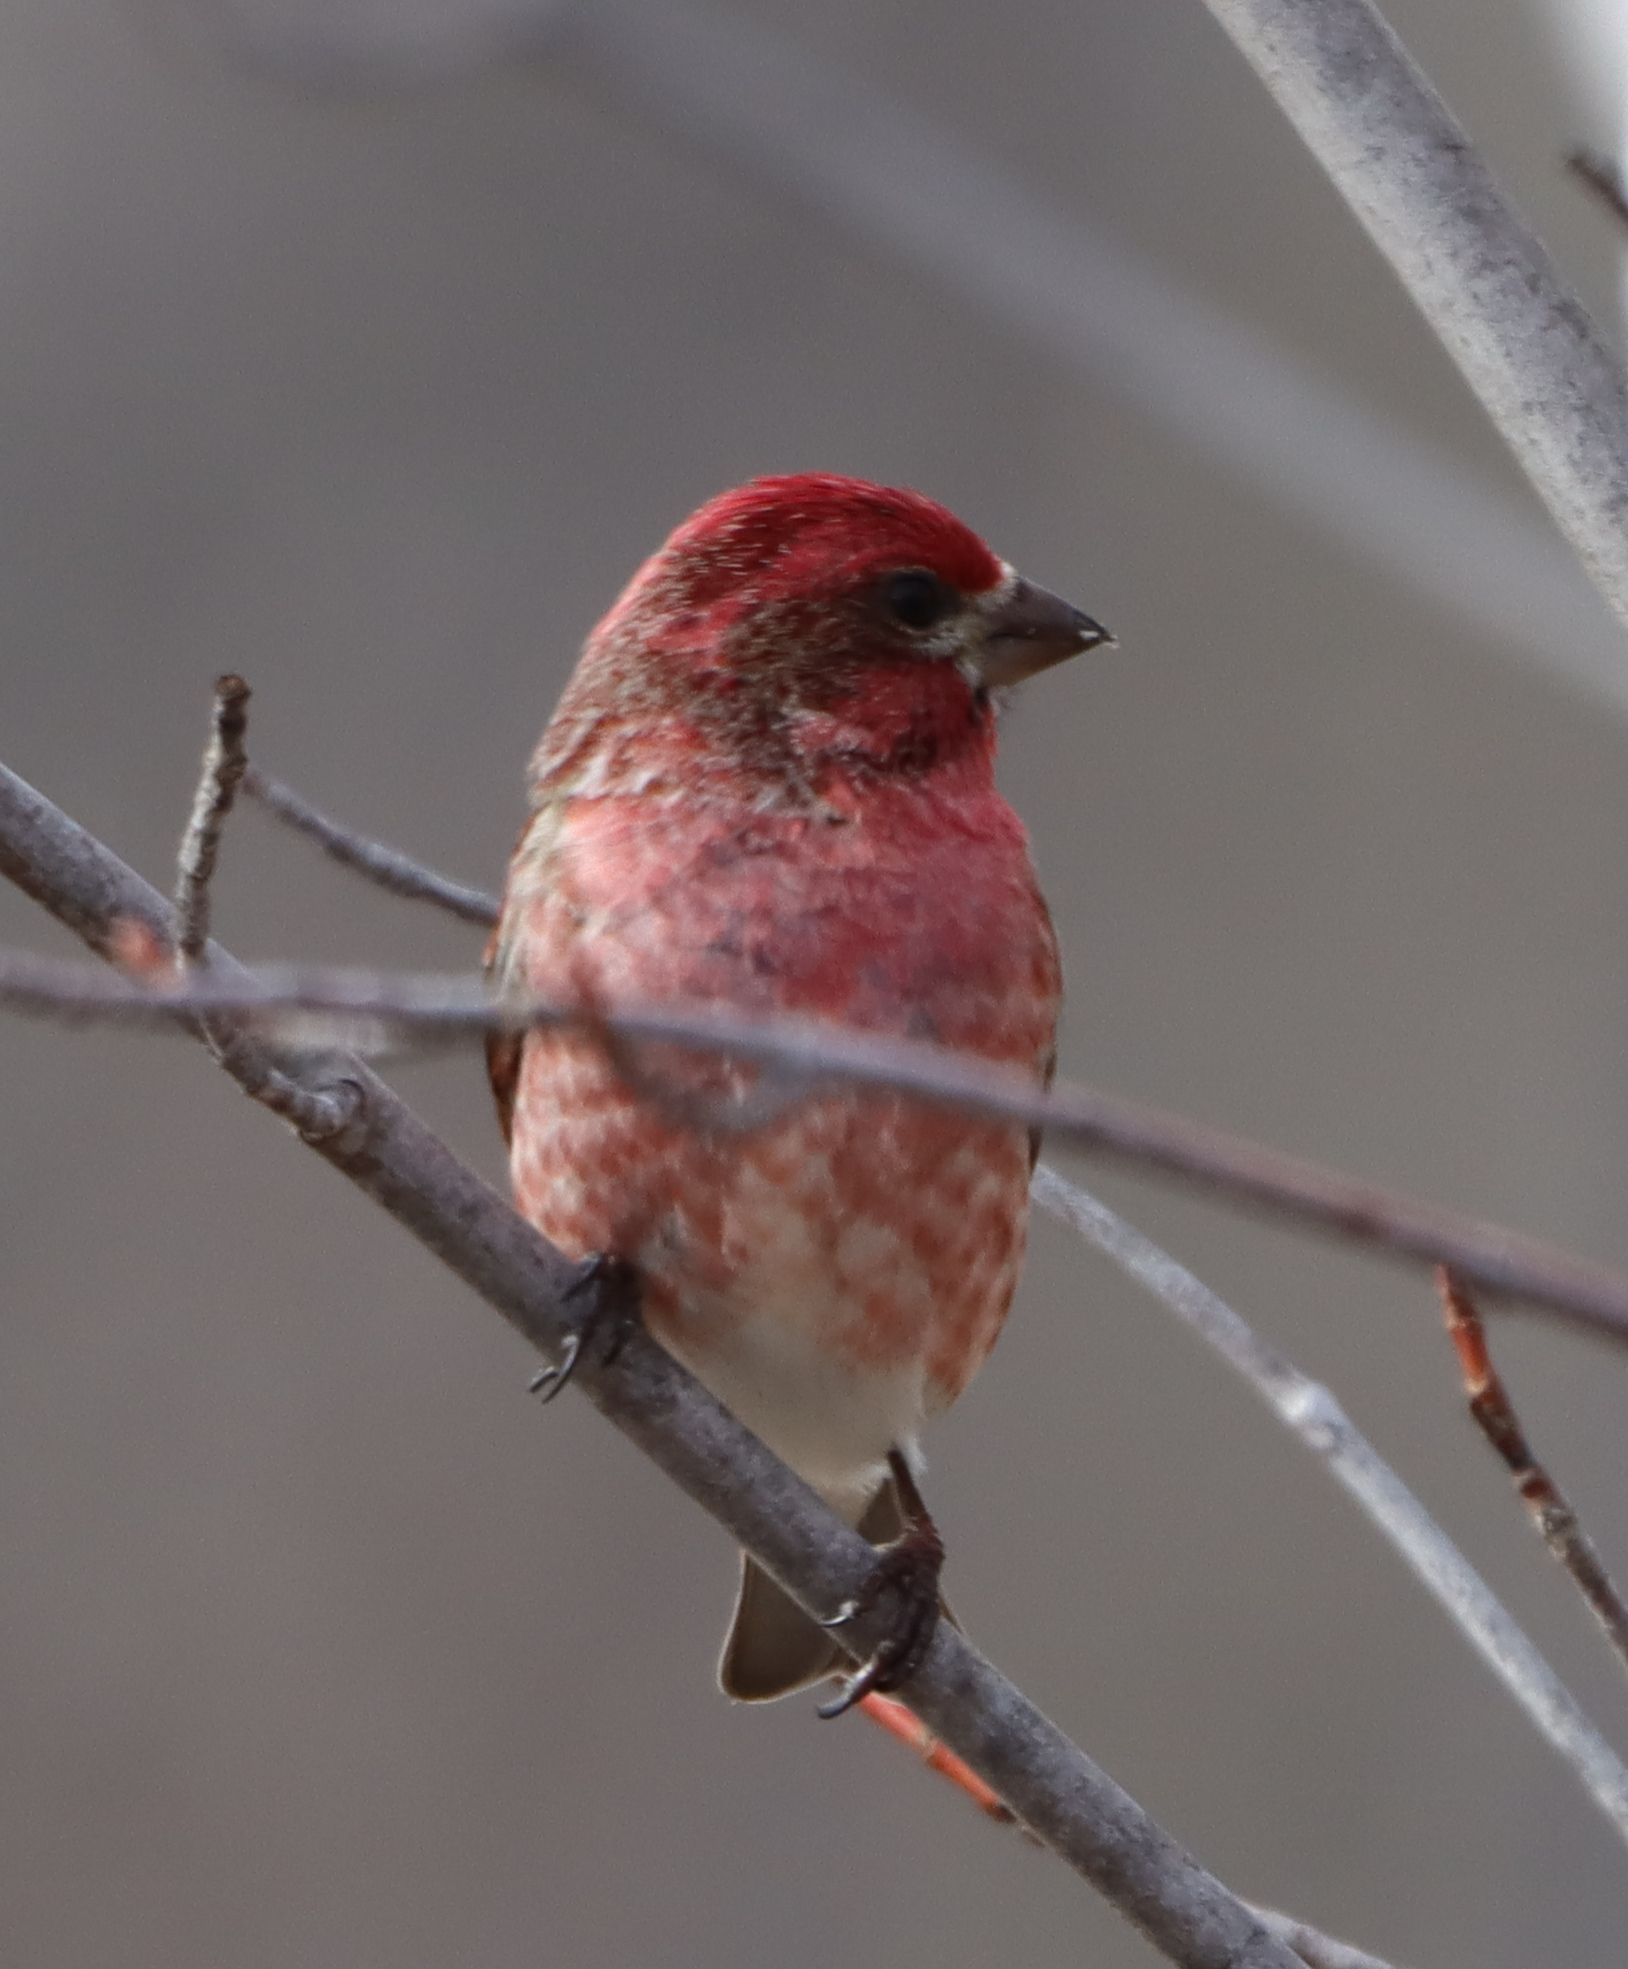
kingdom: Animalia
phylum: Chordata
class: Aves
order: Passeriformes
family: Fringillidae
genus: Haemorhous
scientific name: Haemorhous purpureus
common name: Purple finch
